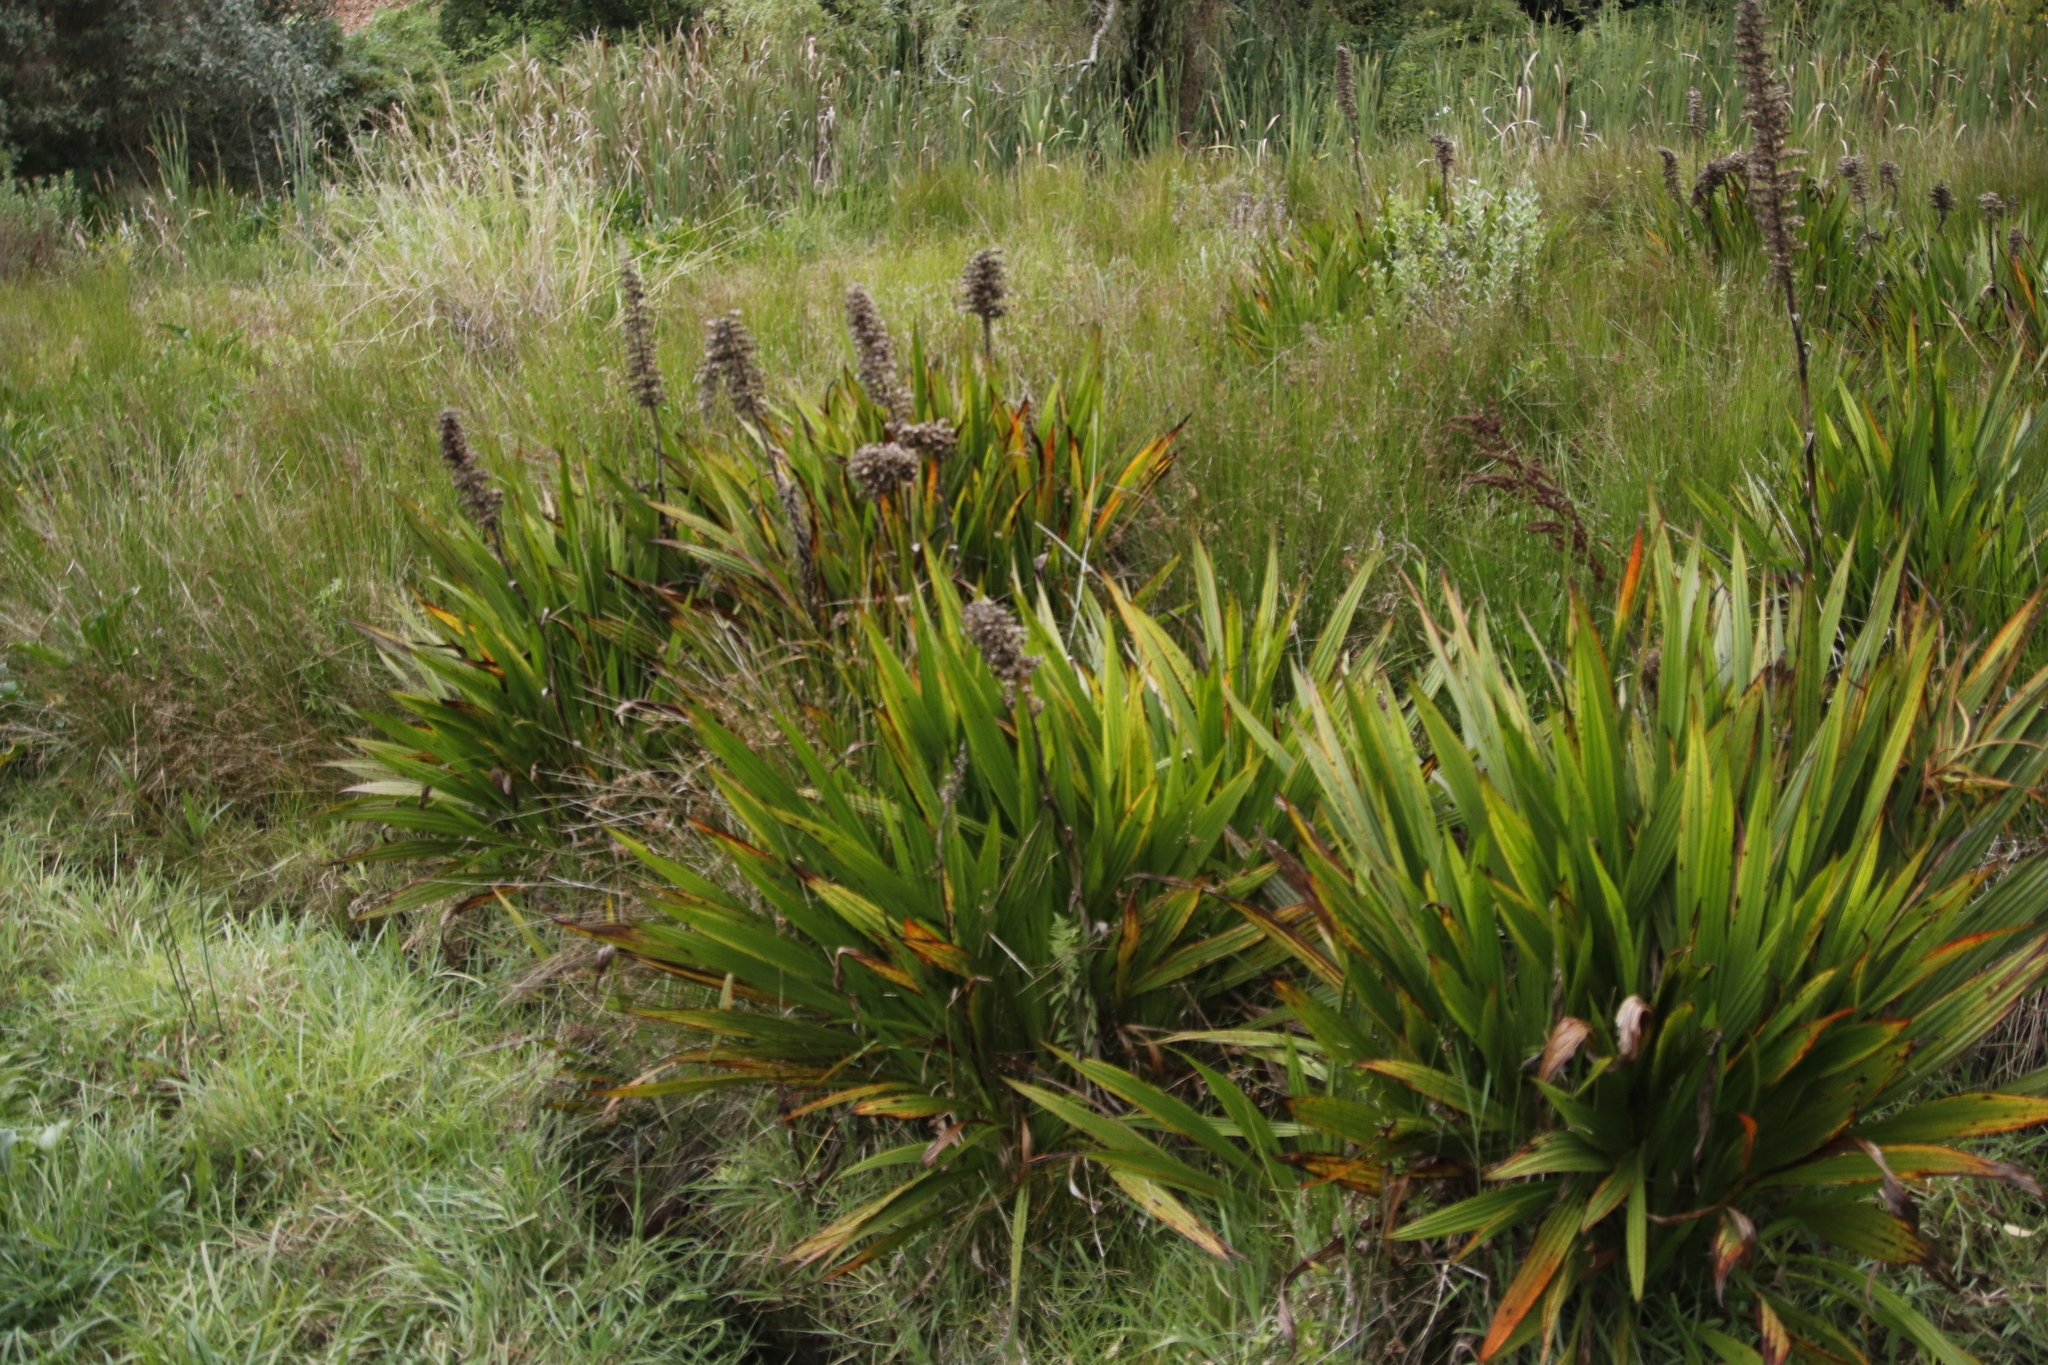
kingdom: Plantae
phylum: Tracheophyta
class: Liliopsida
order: Commelinales
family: Haemodoraceae
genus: Wachendorfia
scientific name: Wachendorfia thyrsiflora
